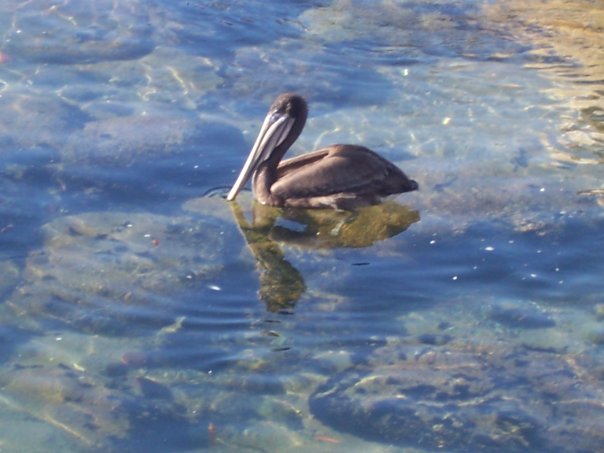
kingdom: Animalia
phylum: Chordata
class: Aves
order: Pelecaniformes
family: Pelecanidae
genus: Pelecanus
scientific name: Pelecanus occidentalis
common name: Brown pelican
